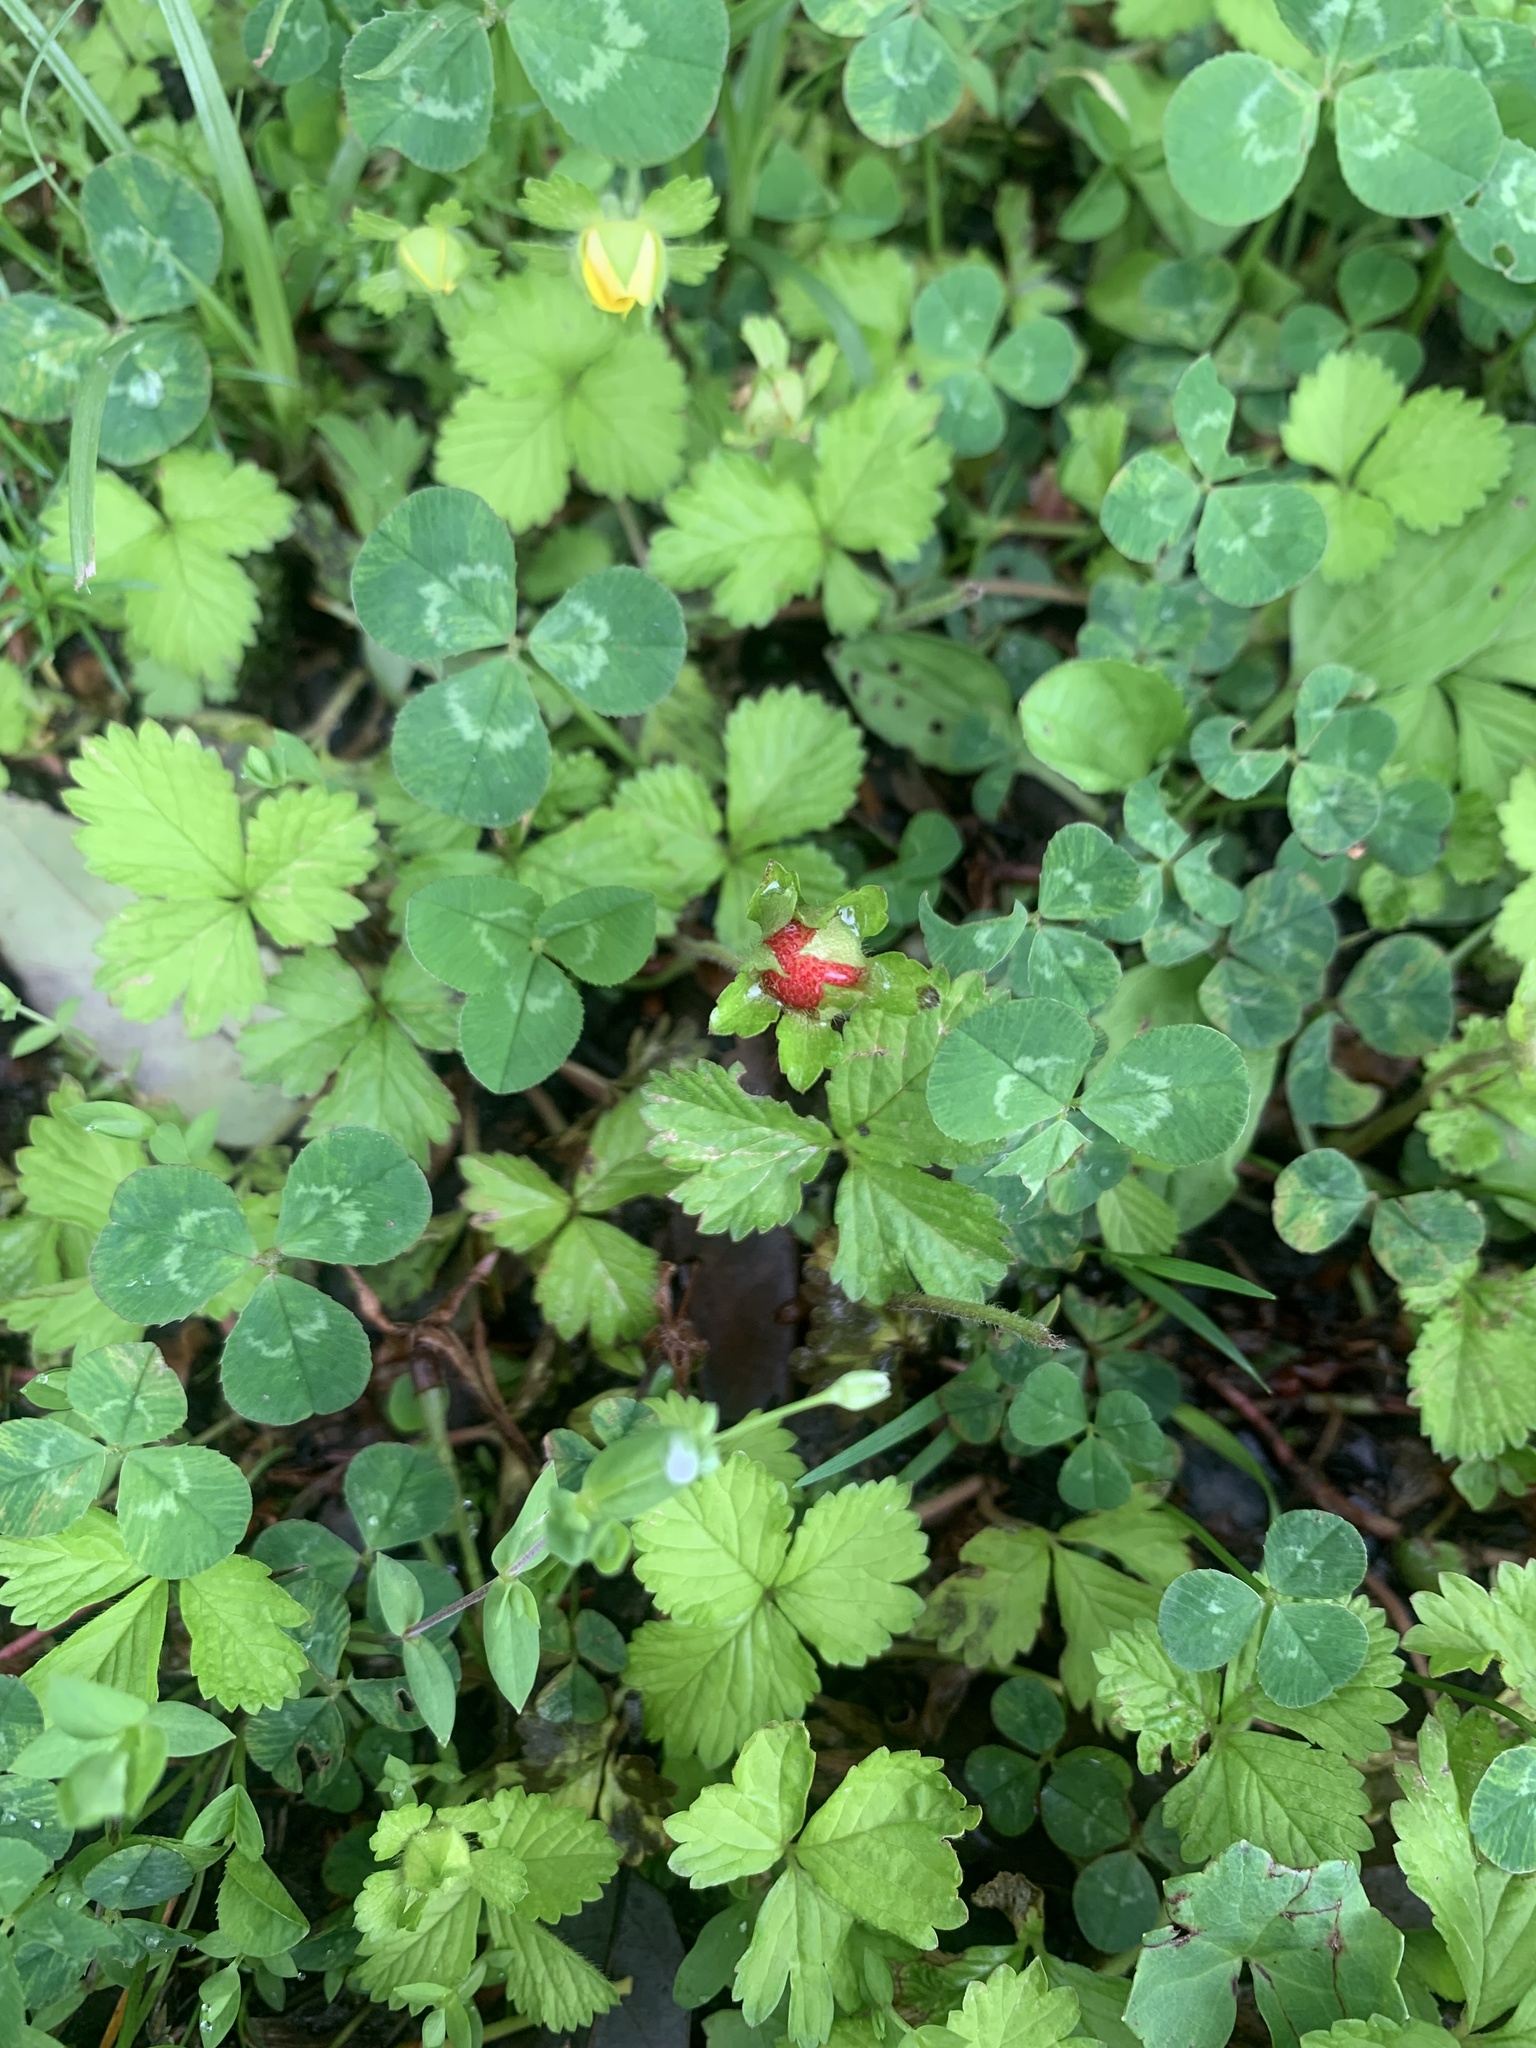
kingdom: Plantae
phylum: Tracheophyta
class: Magnoliopsida
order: Rosales
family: Rosaceae
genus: Potentilla
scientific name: Potentilla wallichiana
